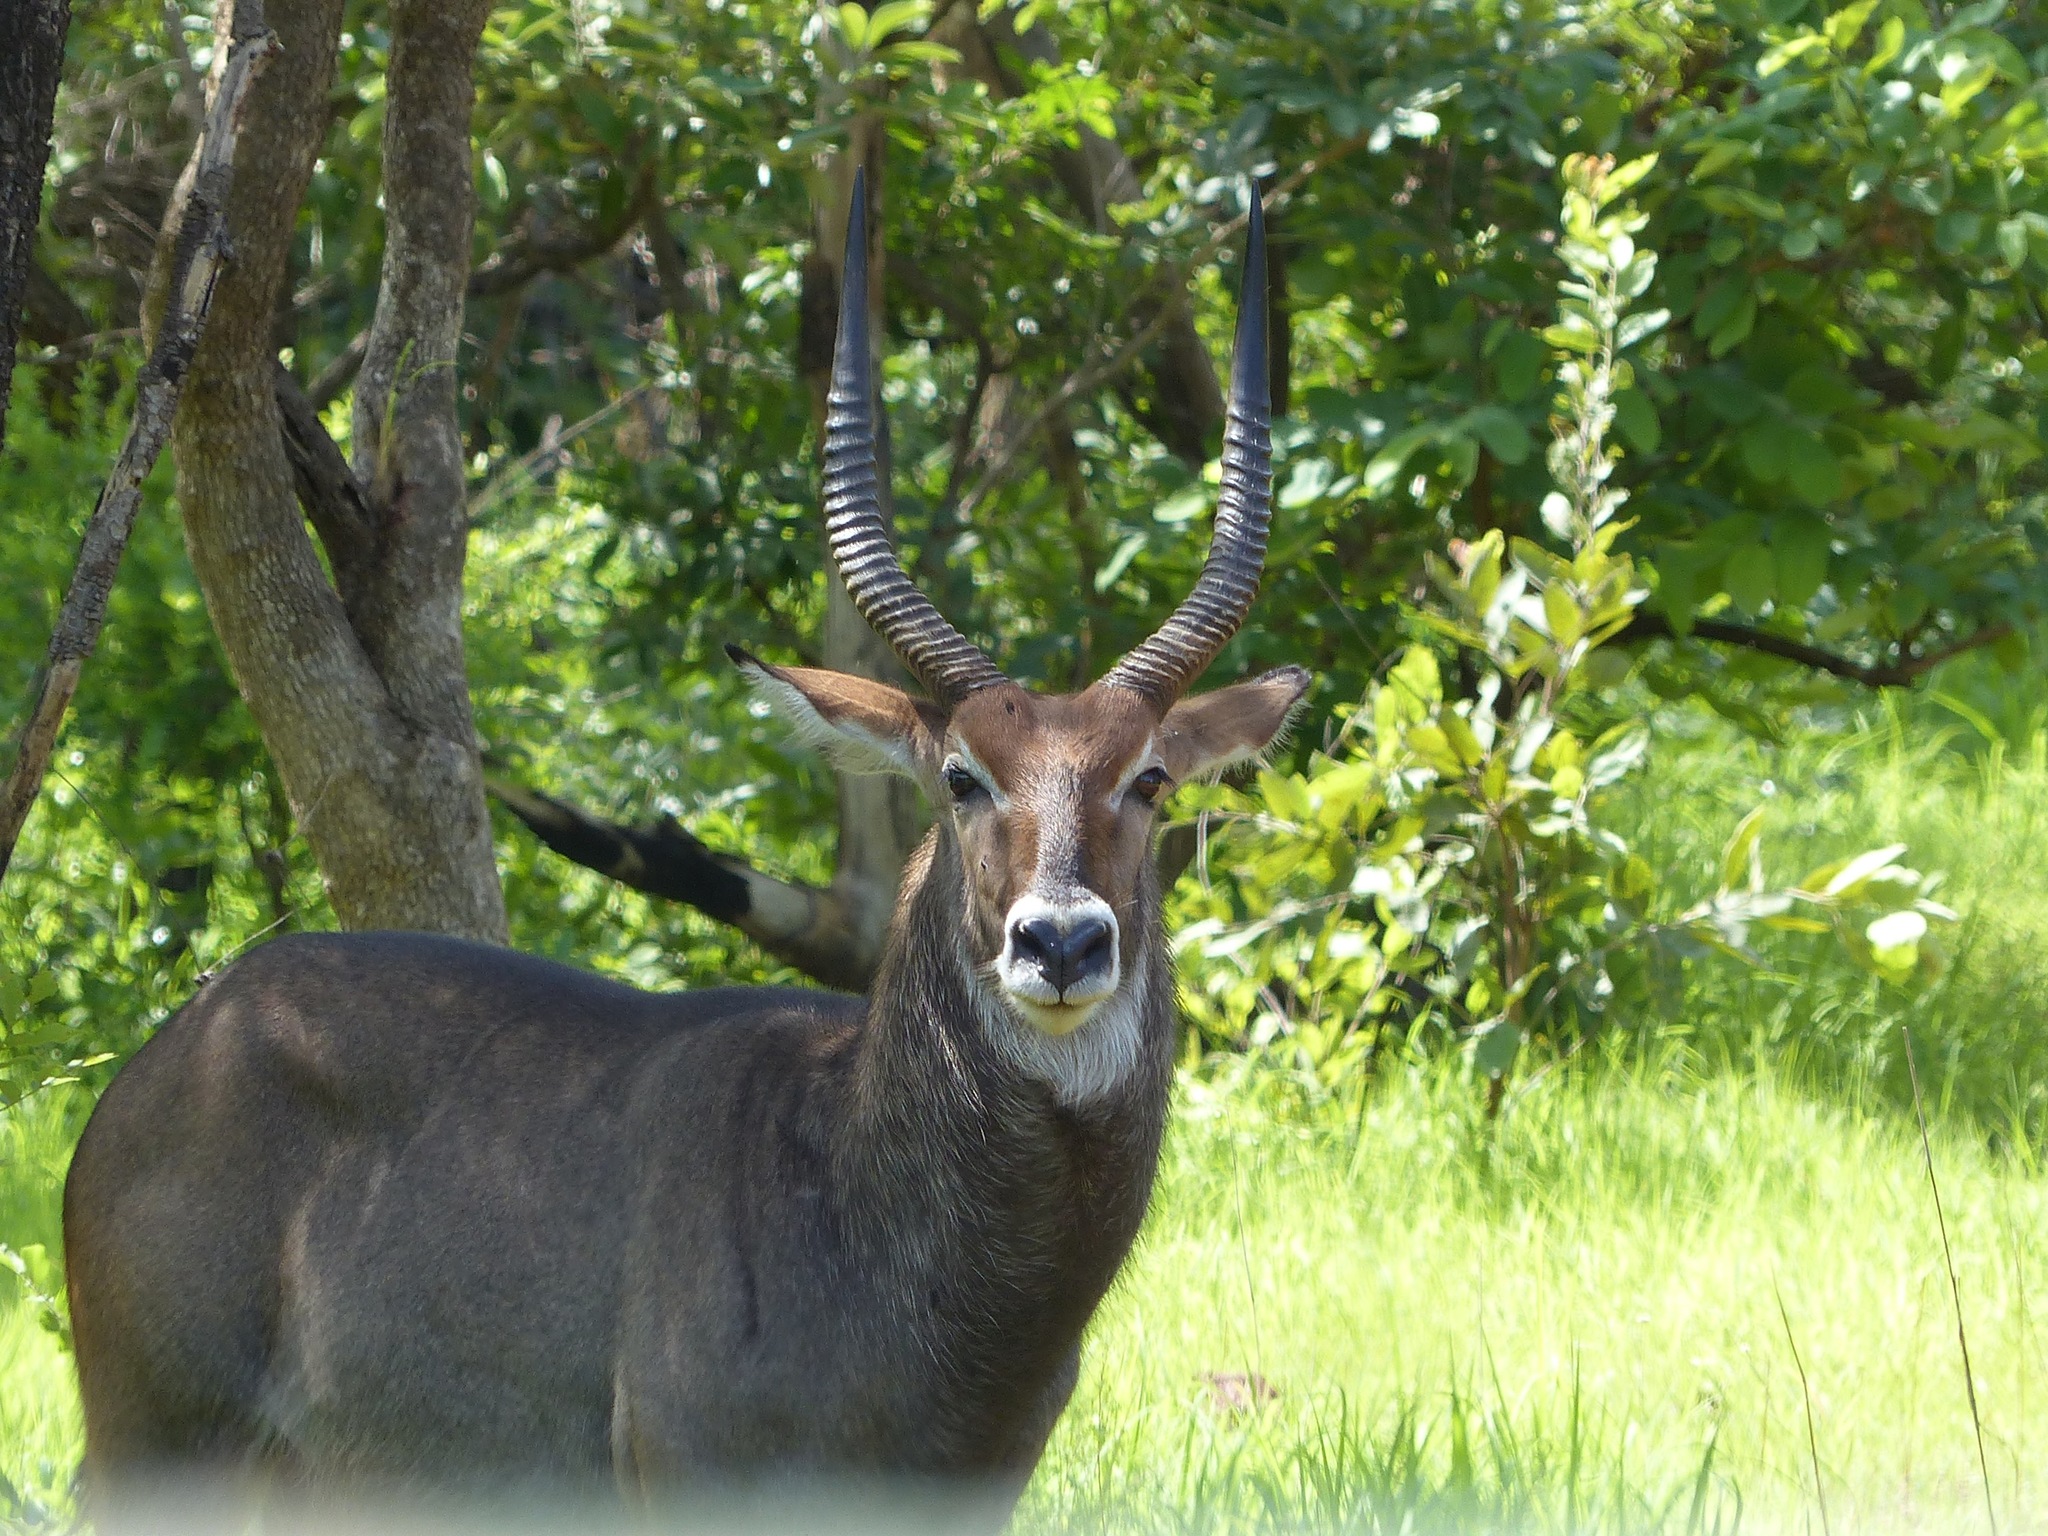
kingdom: Animalia
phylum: Chordata
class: Mammalia
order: Artiodactyla
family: Bovidae
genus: Kobus
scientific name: Kobus ellipsiprymnus
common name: Waterbuck
